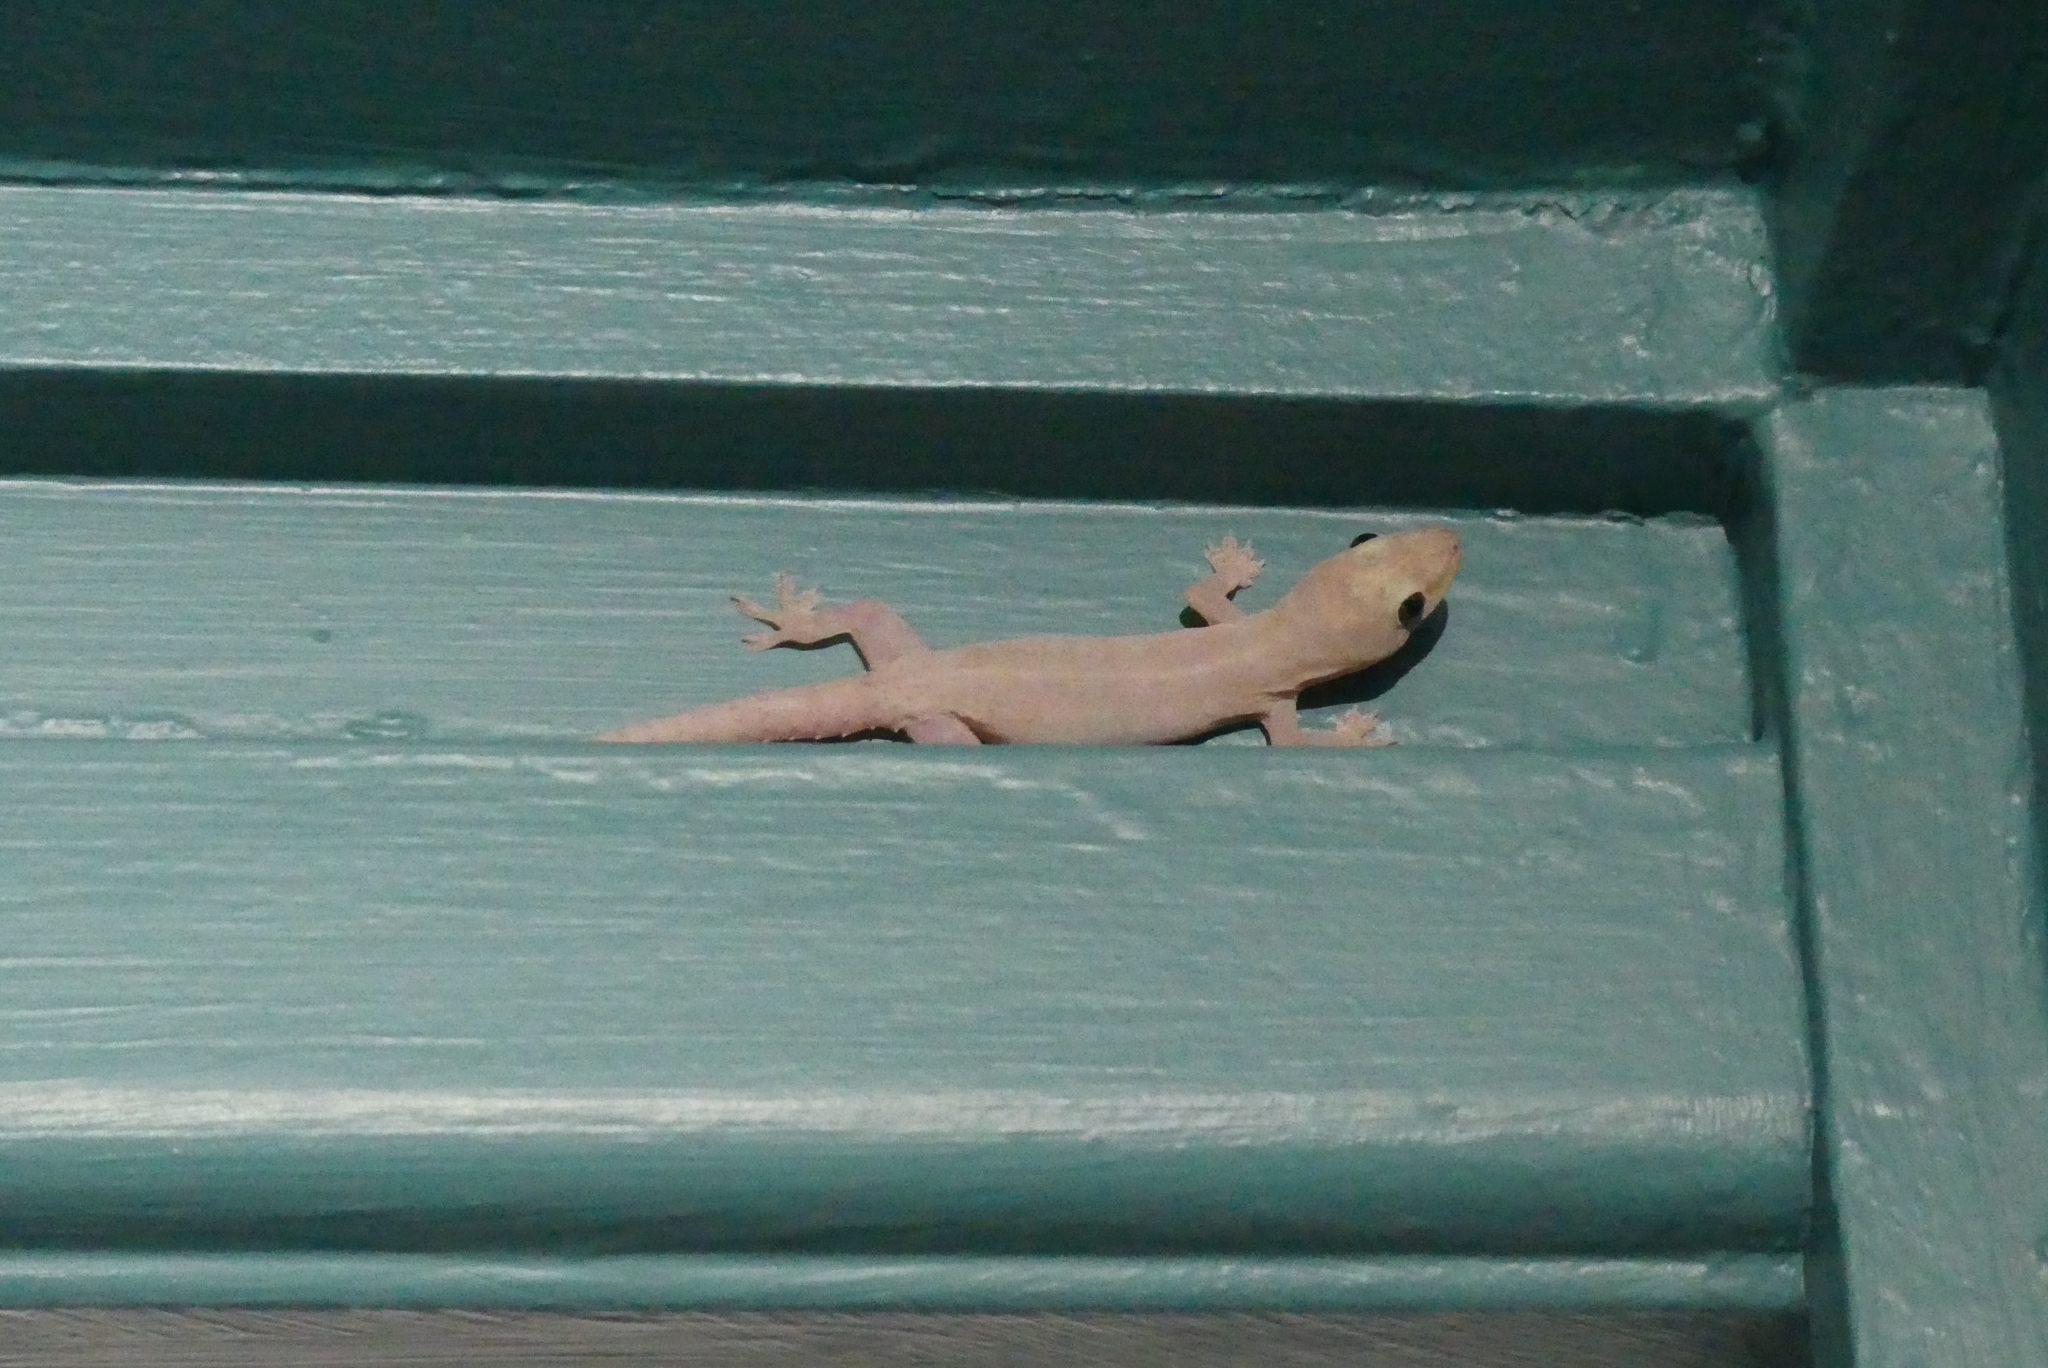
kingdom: Animalia
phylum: Chordata
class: Squamata
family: Gekkonidae
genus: Hemidactylus
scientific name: Hemidactylus frenatus
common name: Common house gecko
